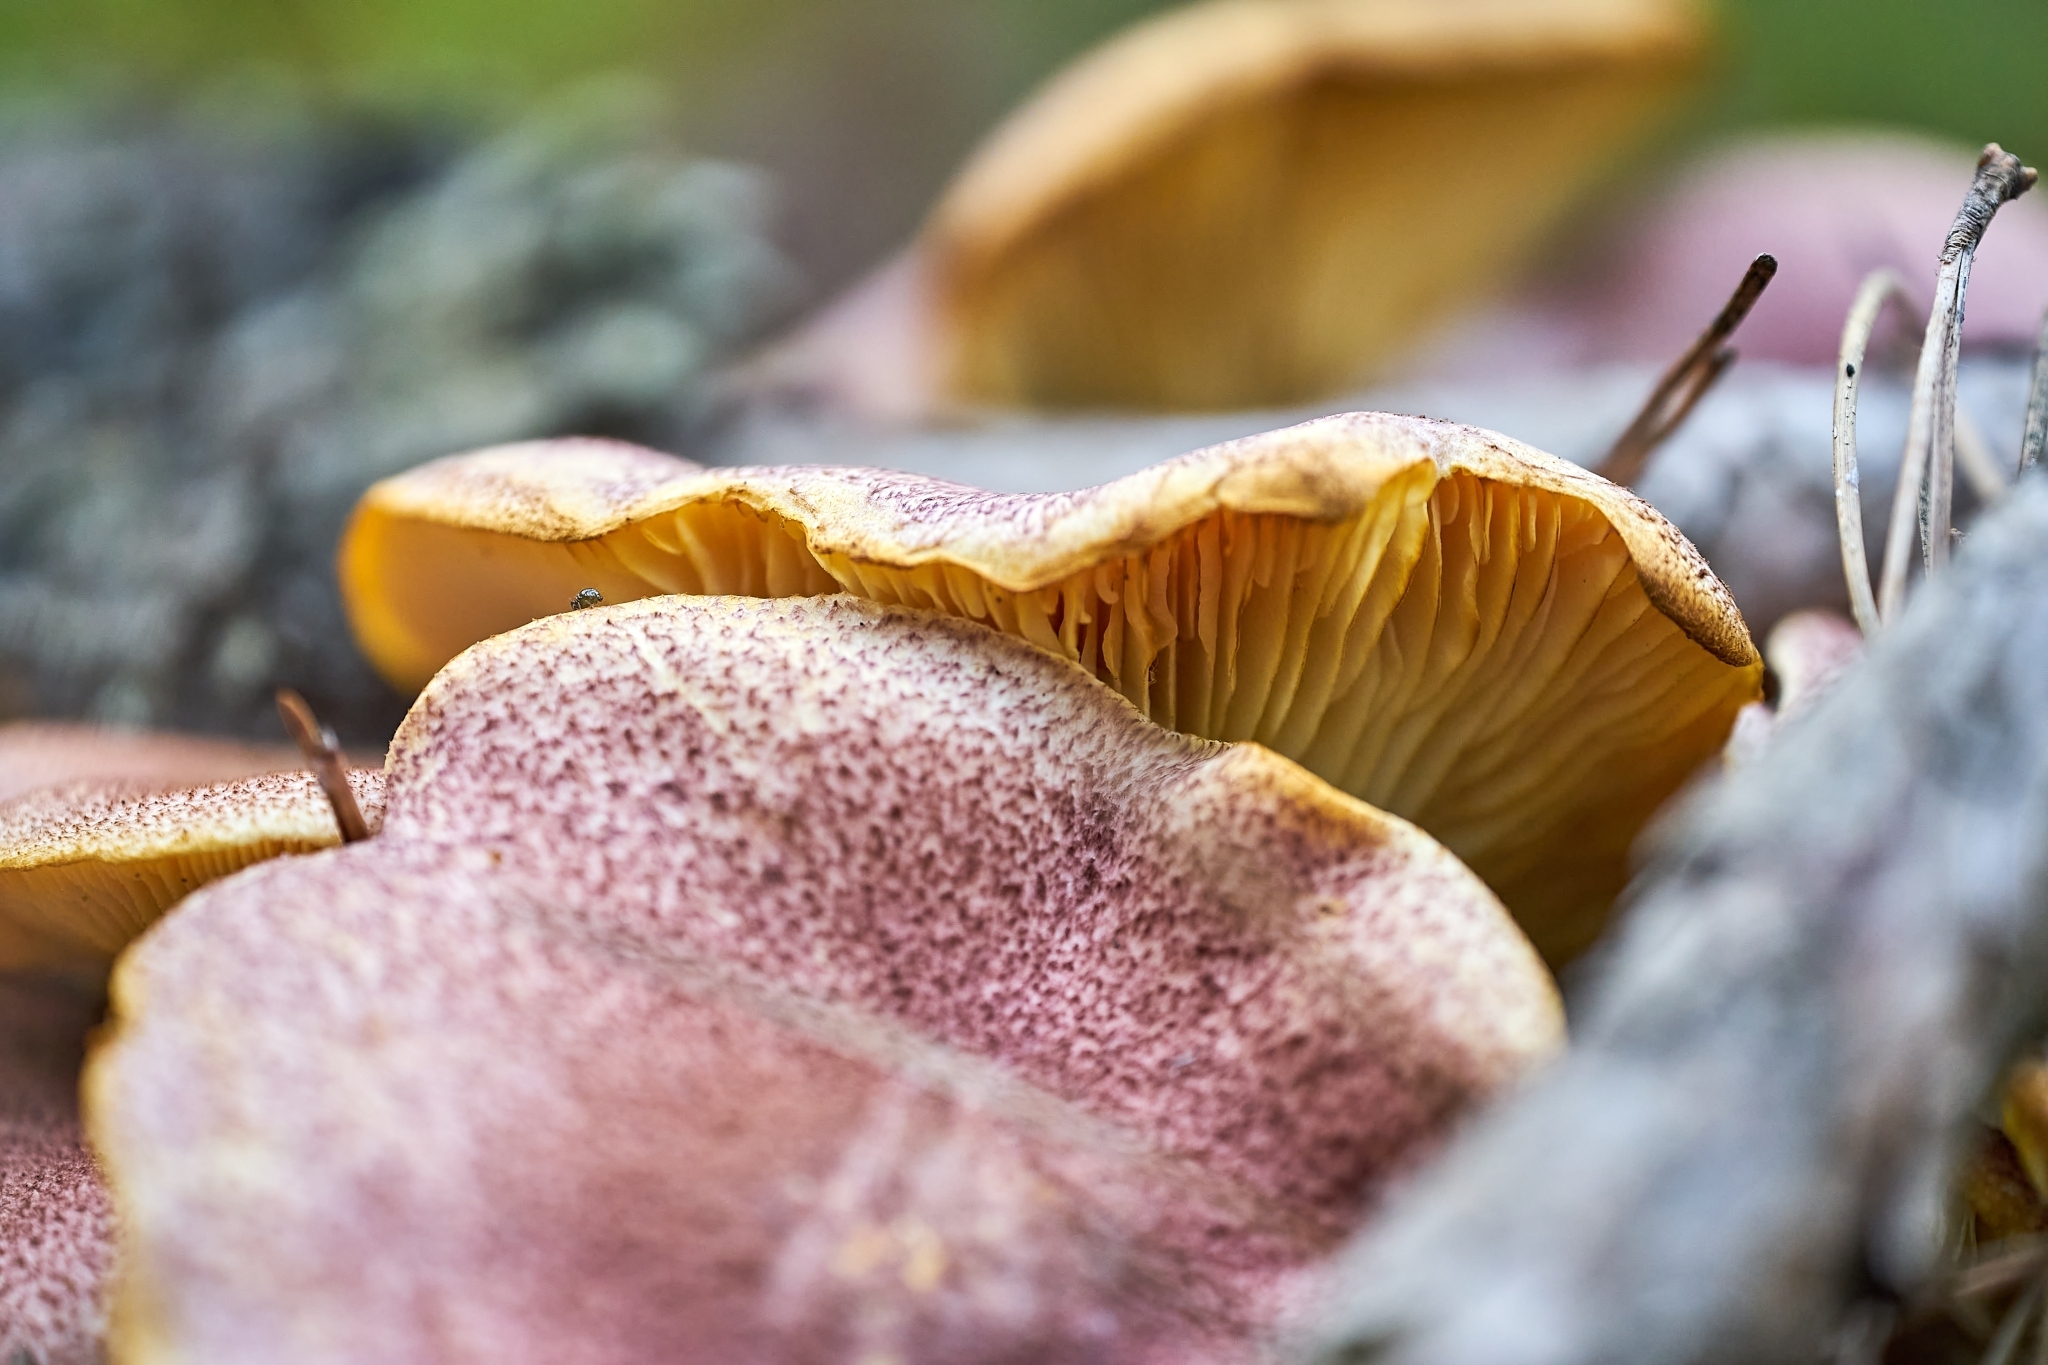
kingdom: Fungi
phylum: Basidiomycota
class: Agaricomycetes
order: Agaricales
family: Tricholomataceae
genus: Tricholomopsis
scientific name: Tricholomopsis rutilans
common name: Plums and custard
